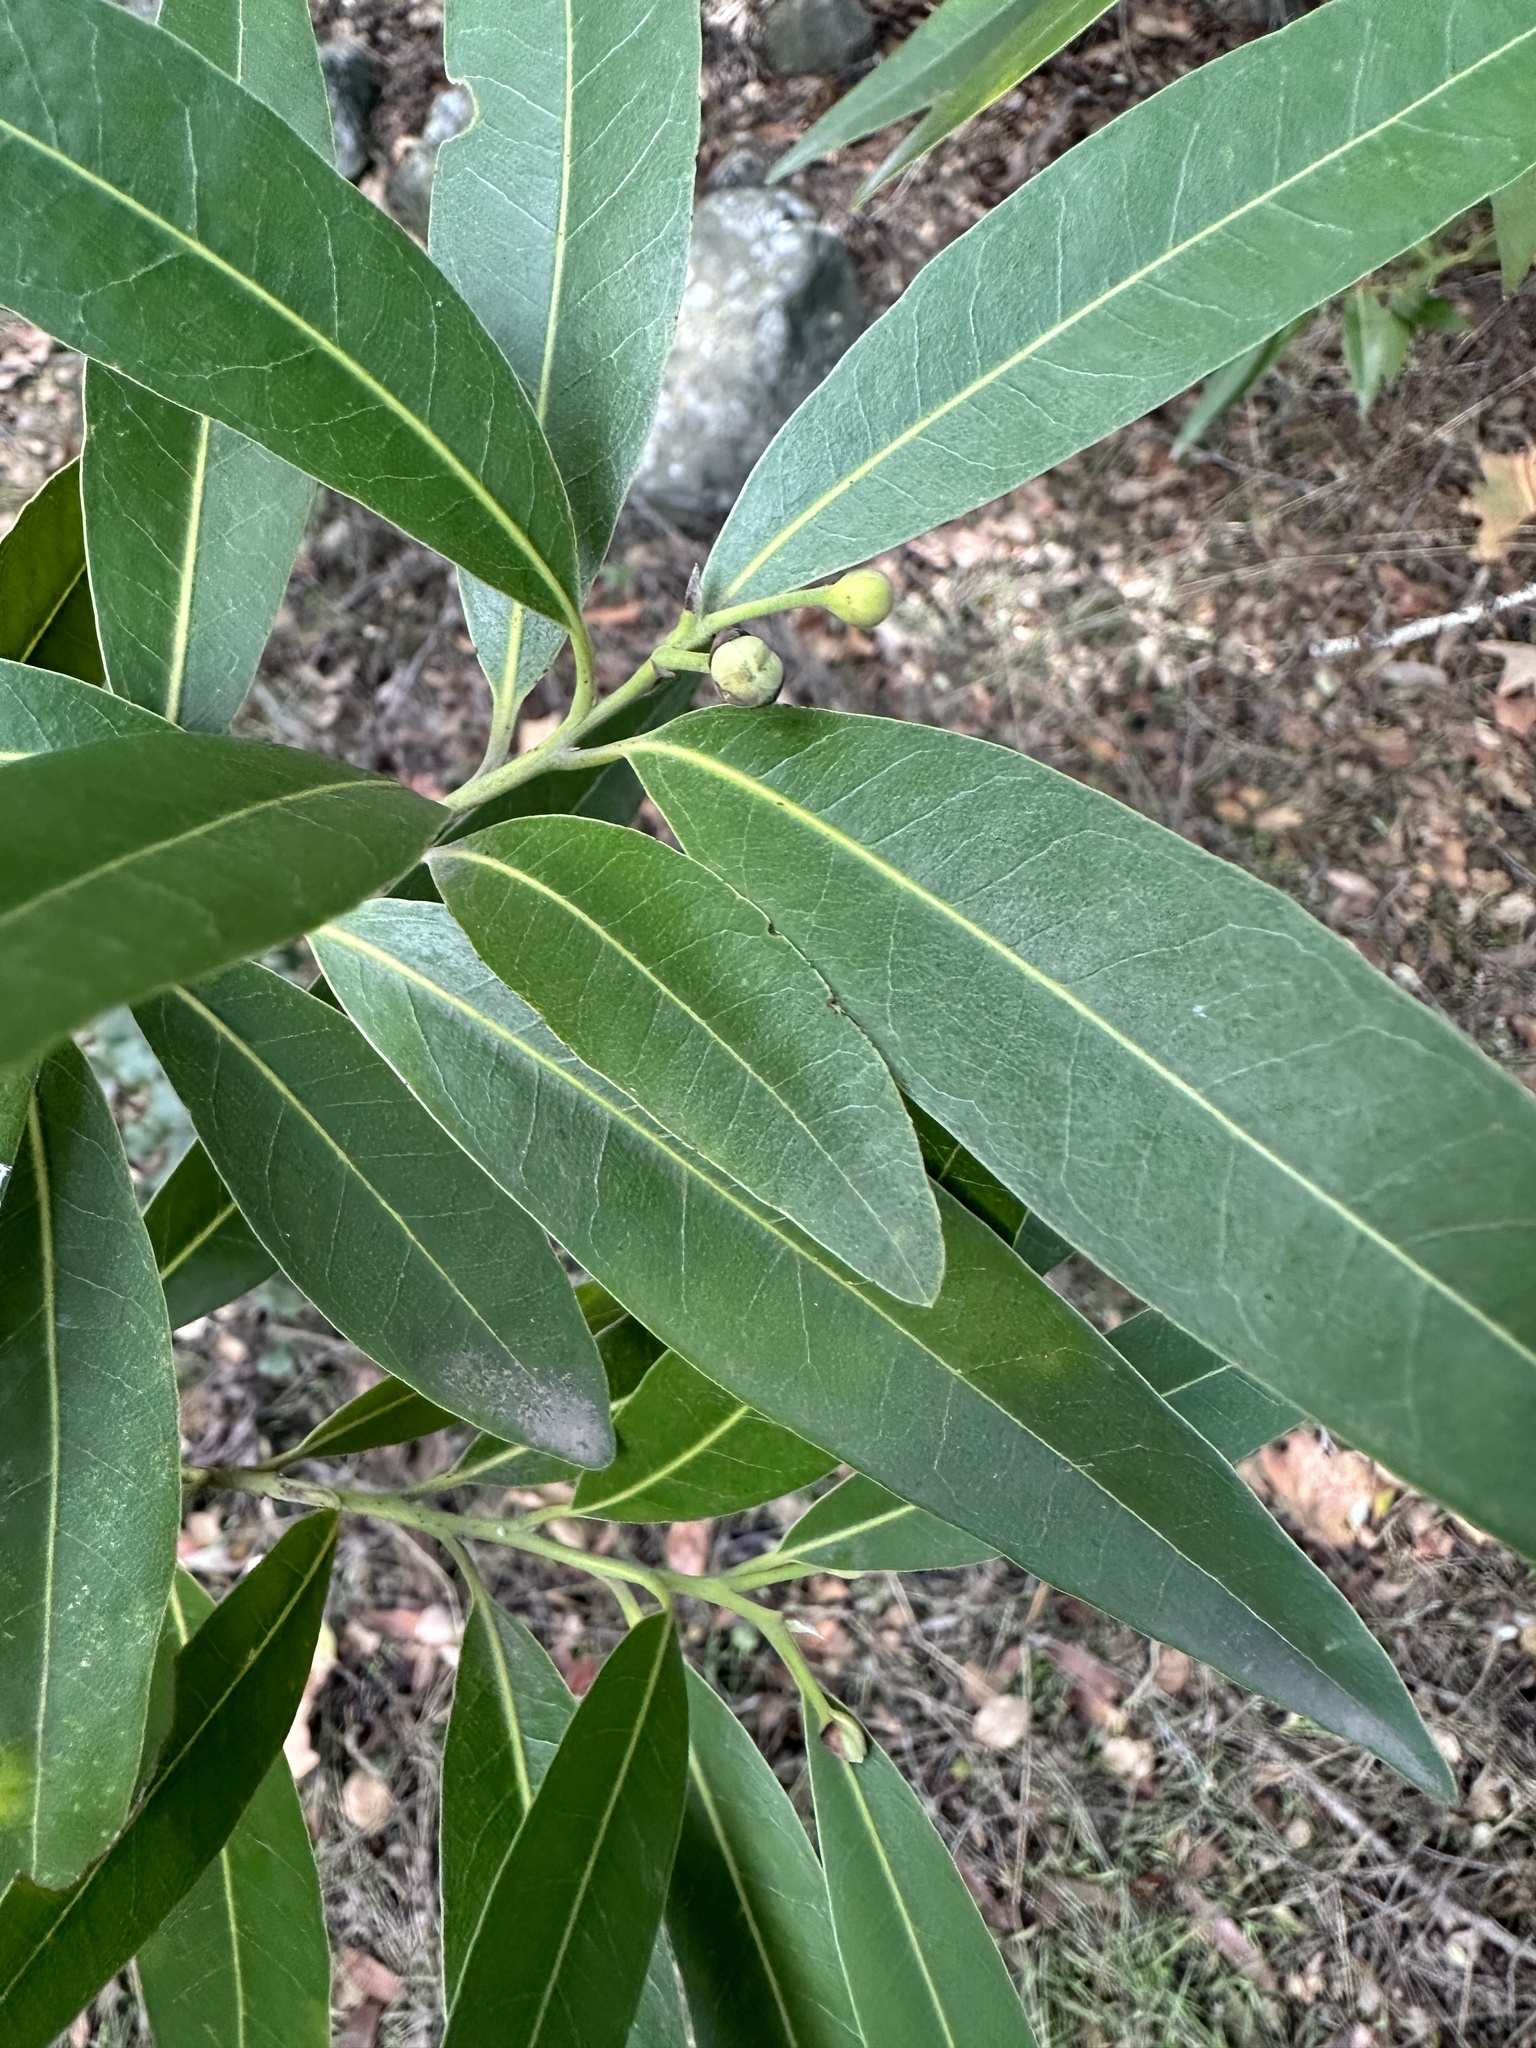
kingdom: Plantae
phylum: Tracheophyta
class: Magnoliopsida
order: Laurales
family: Lauraceae
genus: Umbellularia
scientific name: Umbellularia californica
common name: California bay
